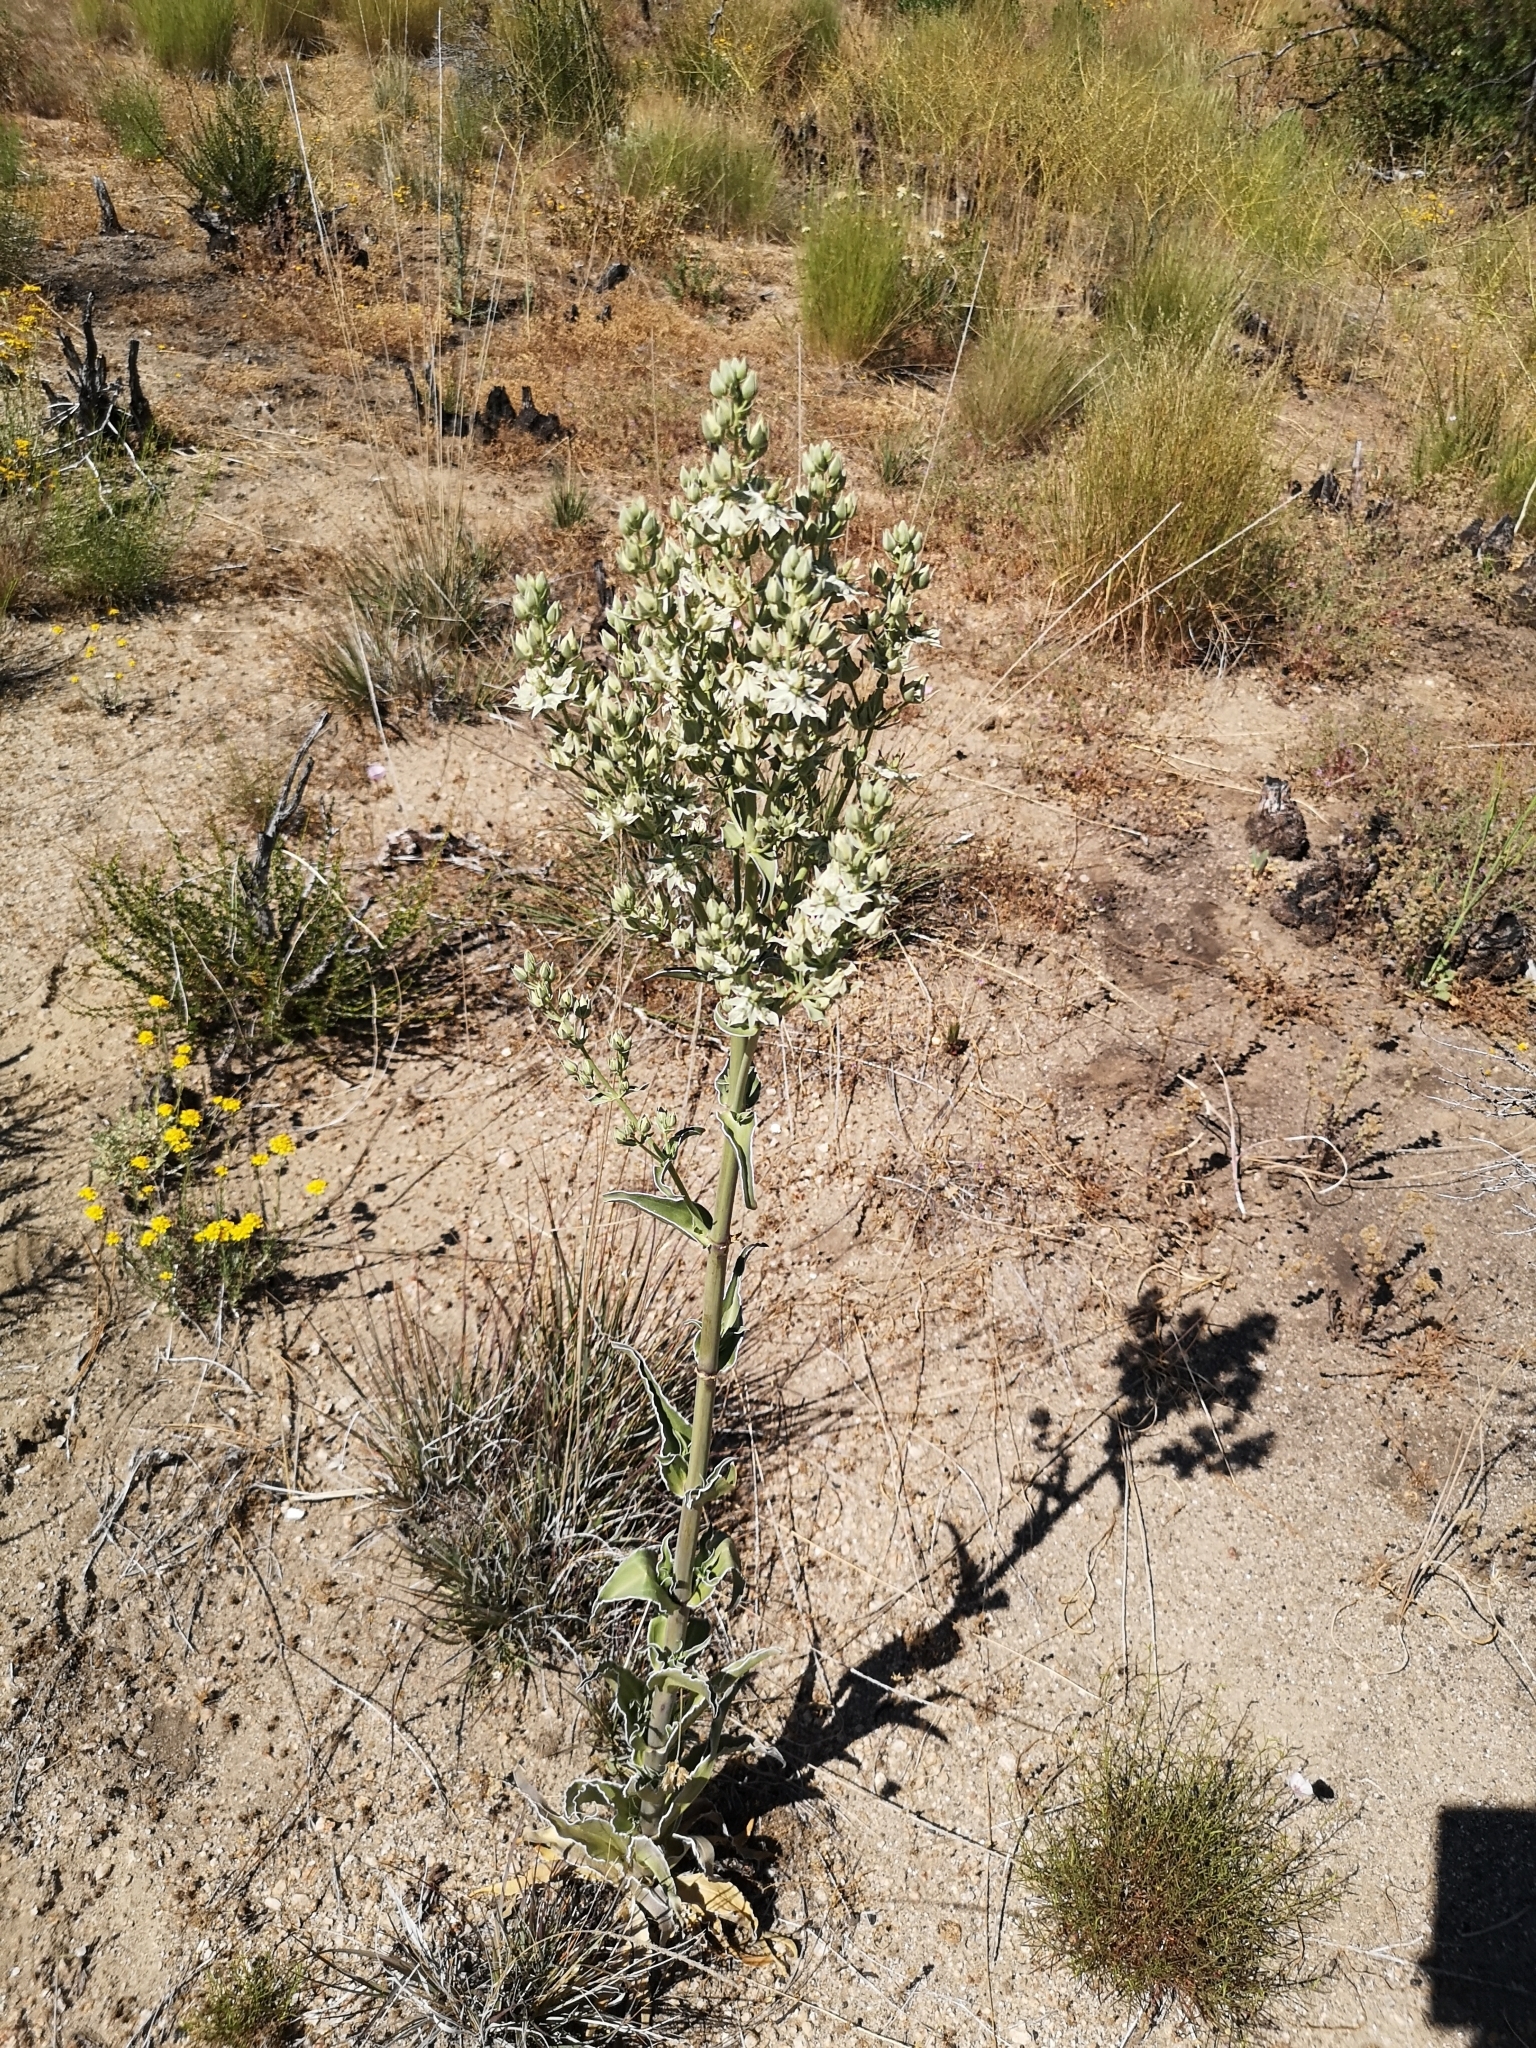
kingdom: Plantae
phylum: Tracheophyta
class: Magnoliopsida
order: Gentianales
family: Gentianaceae
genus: Frasera
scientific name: Frasera parryi
